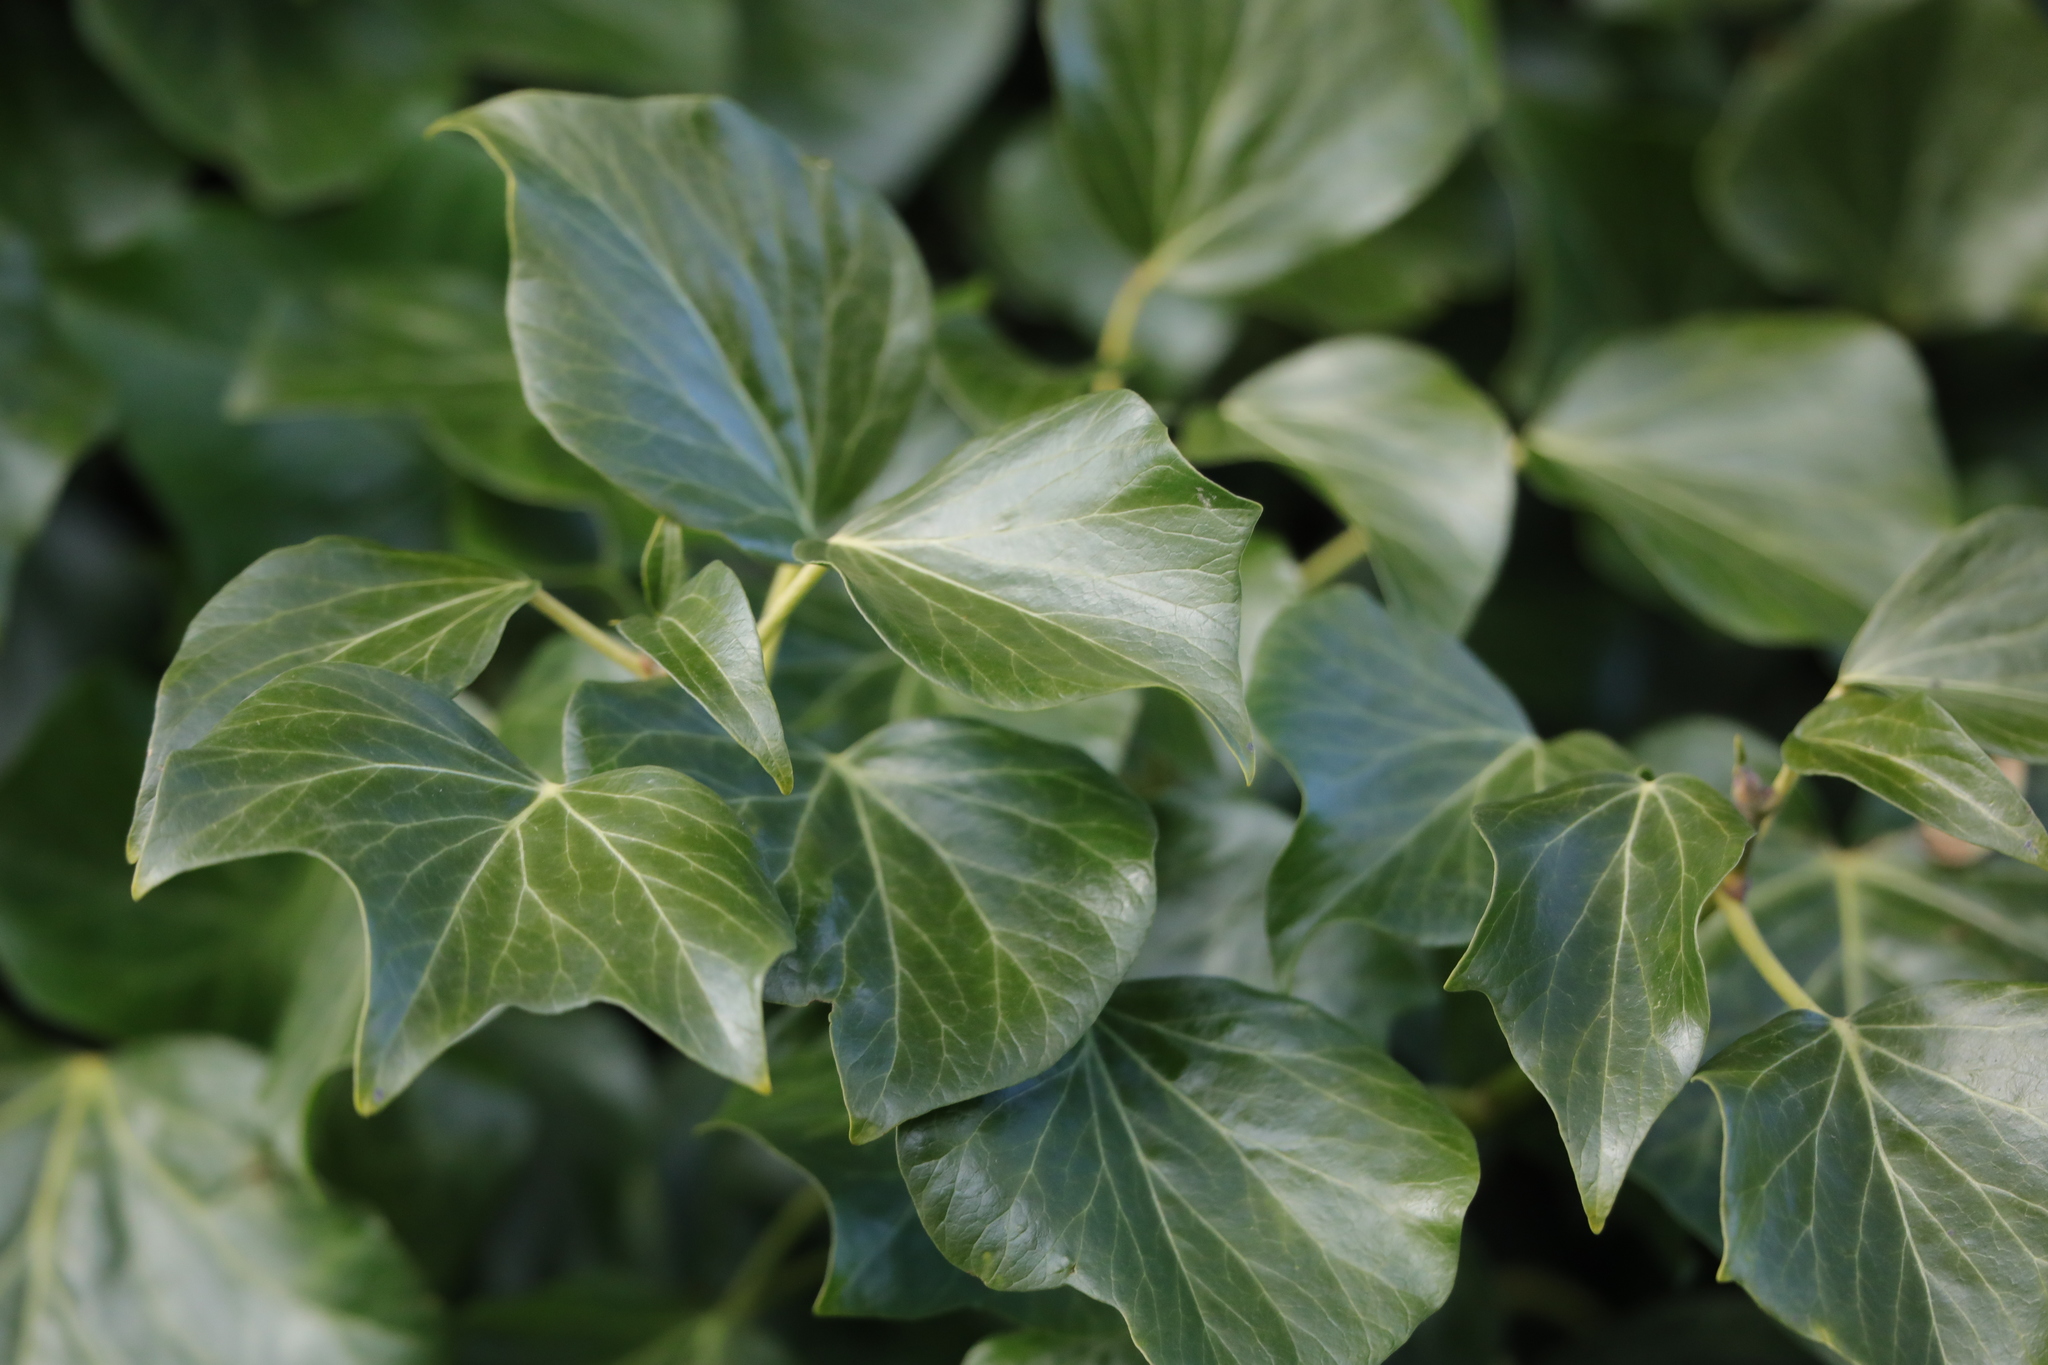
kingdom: Plantae
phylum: Tracheophyta
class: Magnoliopsida
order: Apiales
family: Araliaceae
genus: Hedera
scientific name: Hedera helix
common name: Ivy
